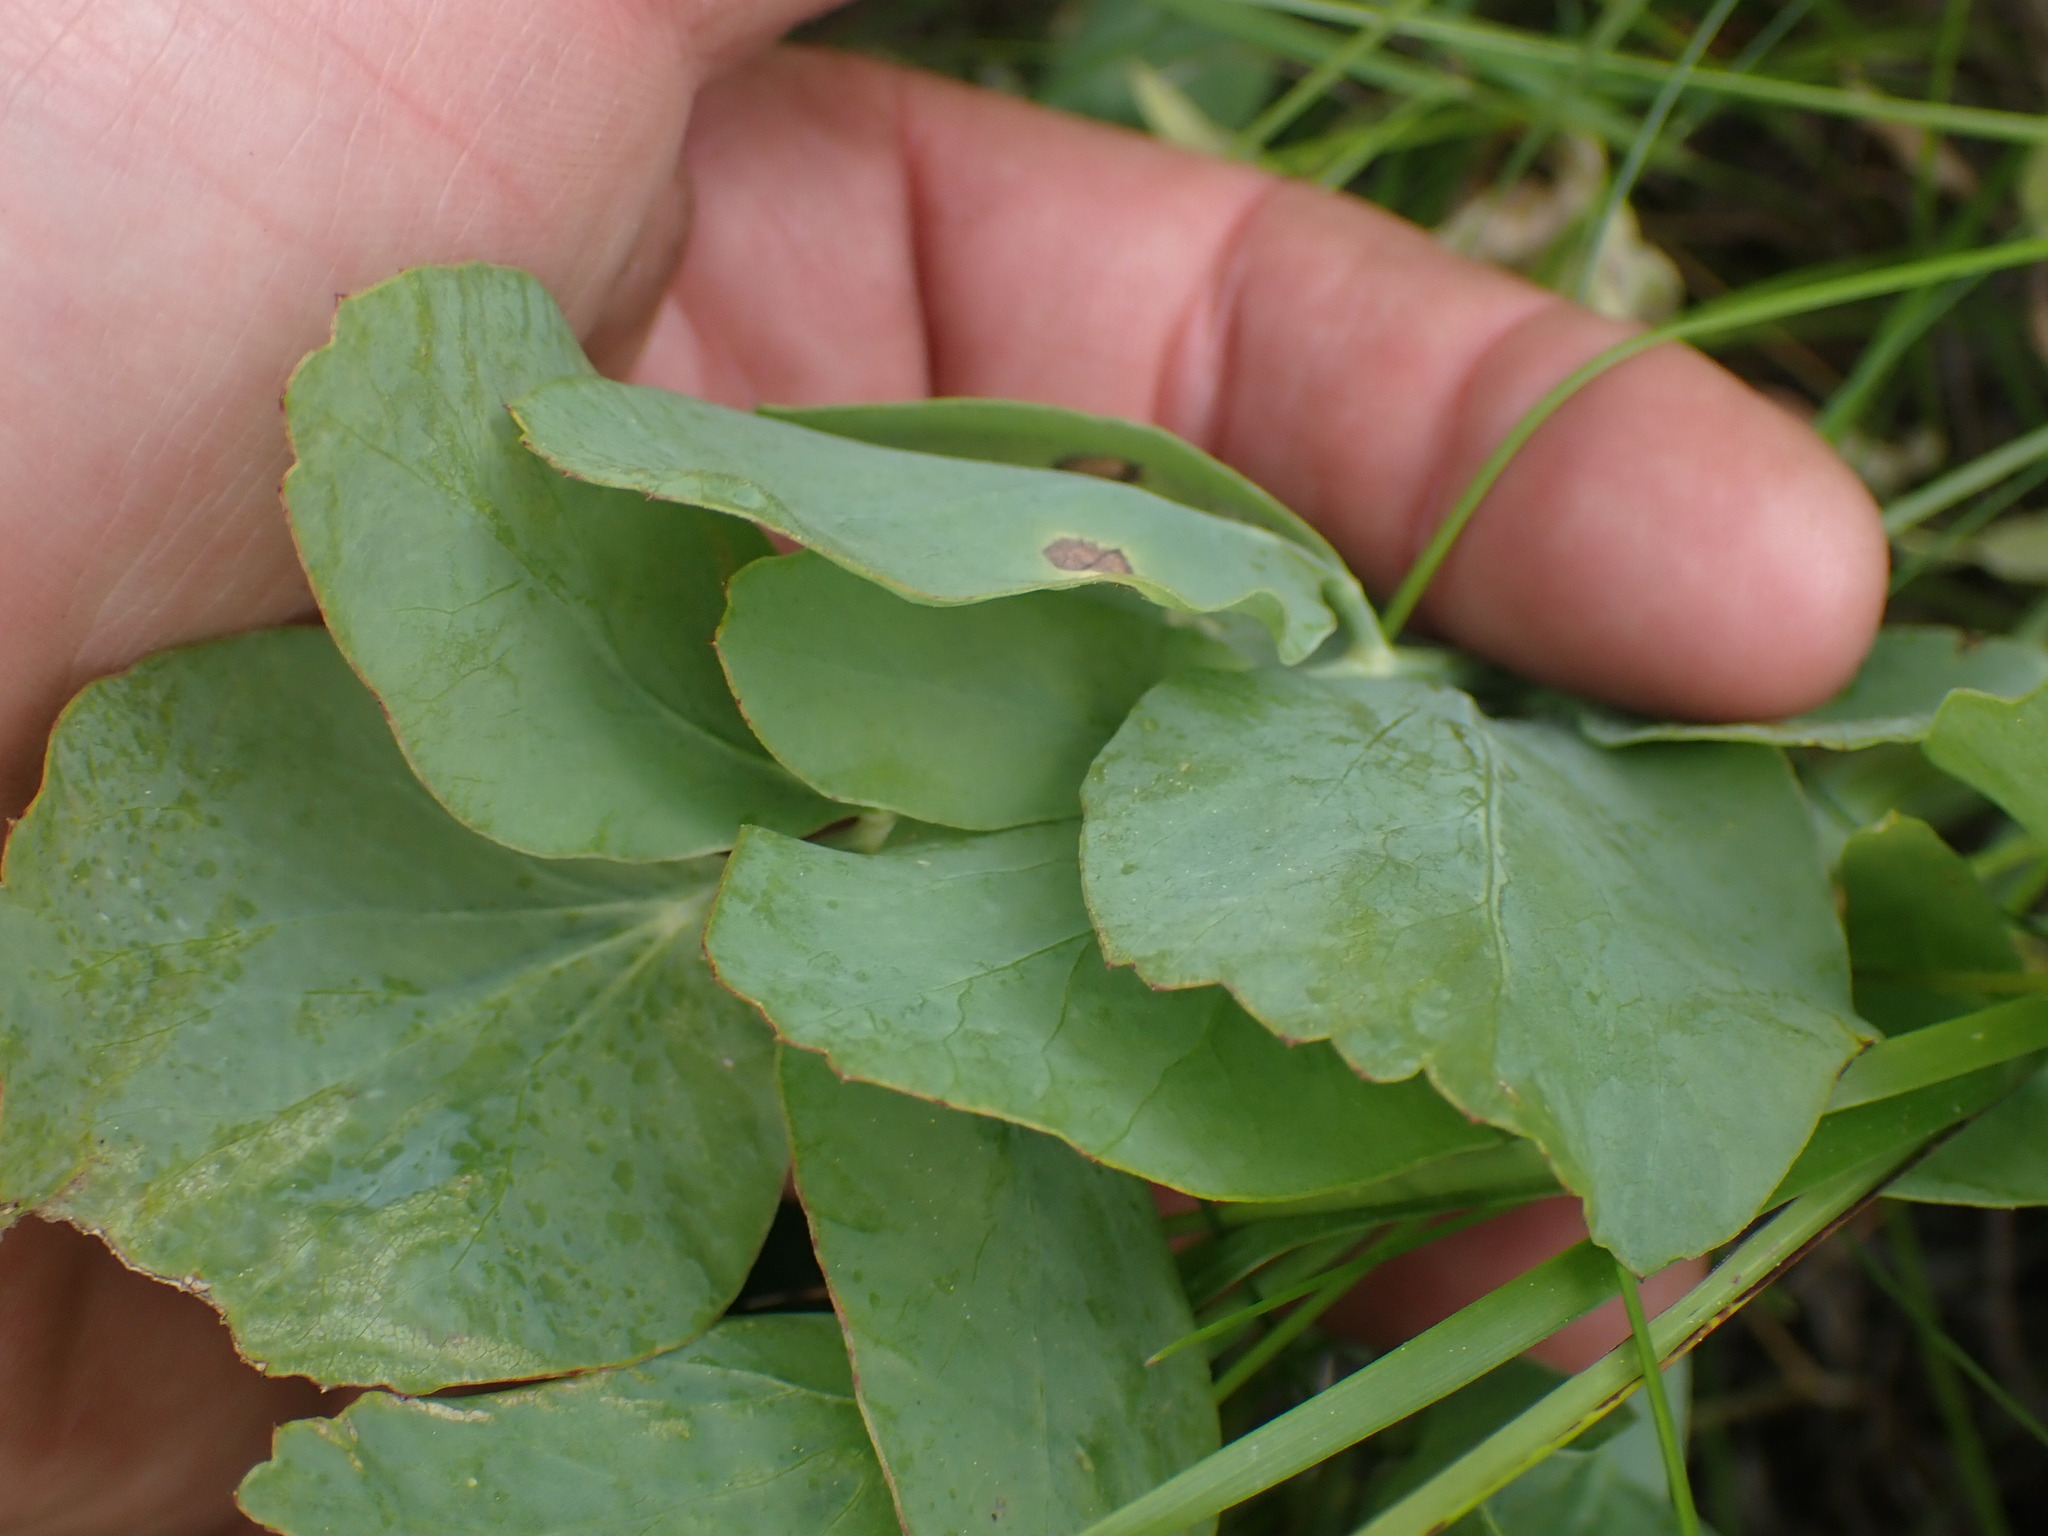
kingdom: Plantae
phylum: Tracheophyta
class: Magnoliopsida
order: Apiales
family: Apiaceae
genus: Lomatium
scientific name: Lomatium nudicaule
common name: Pestle lomatium
